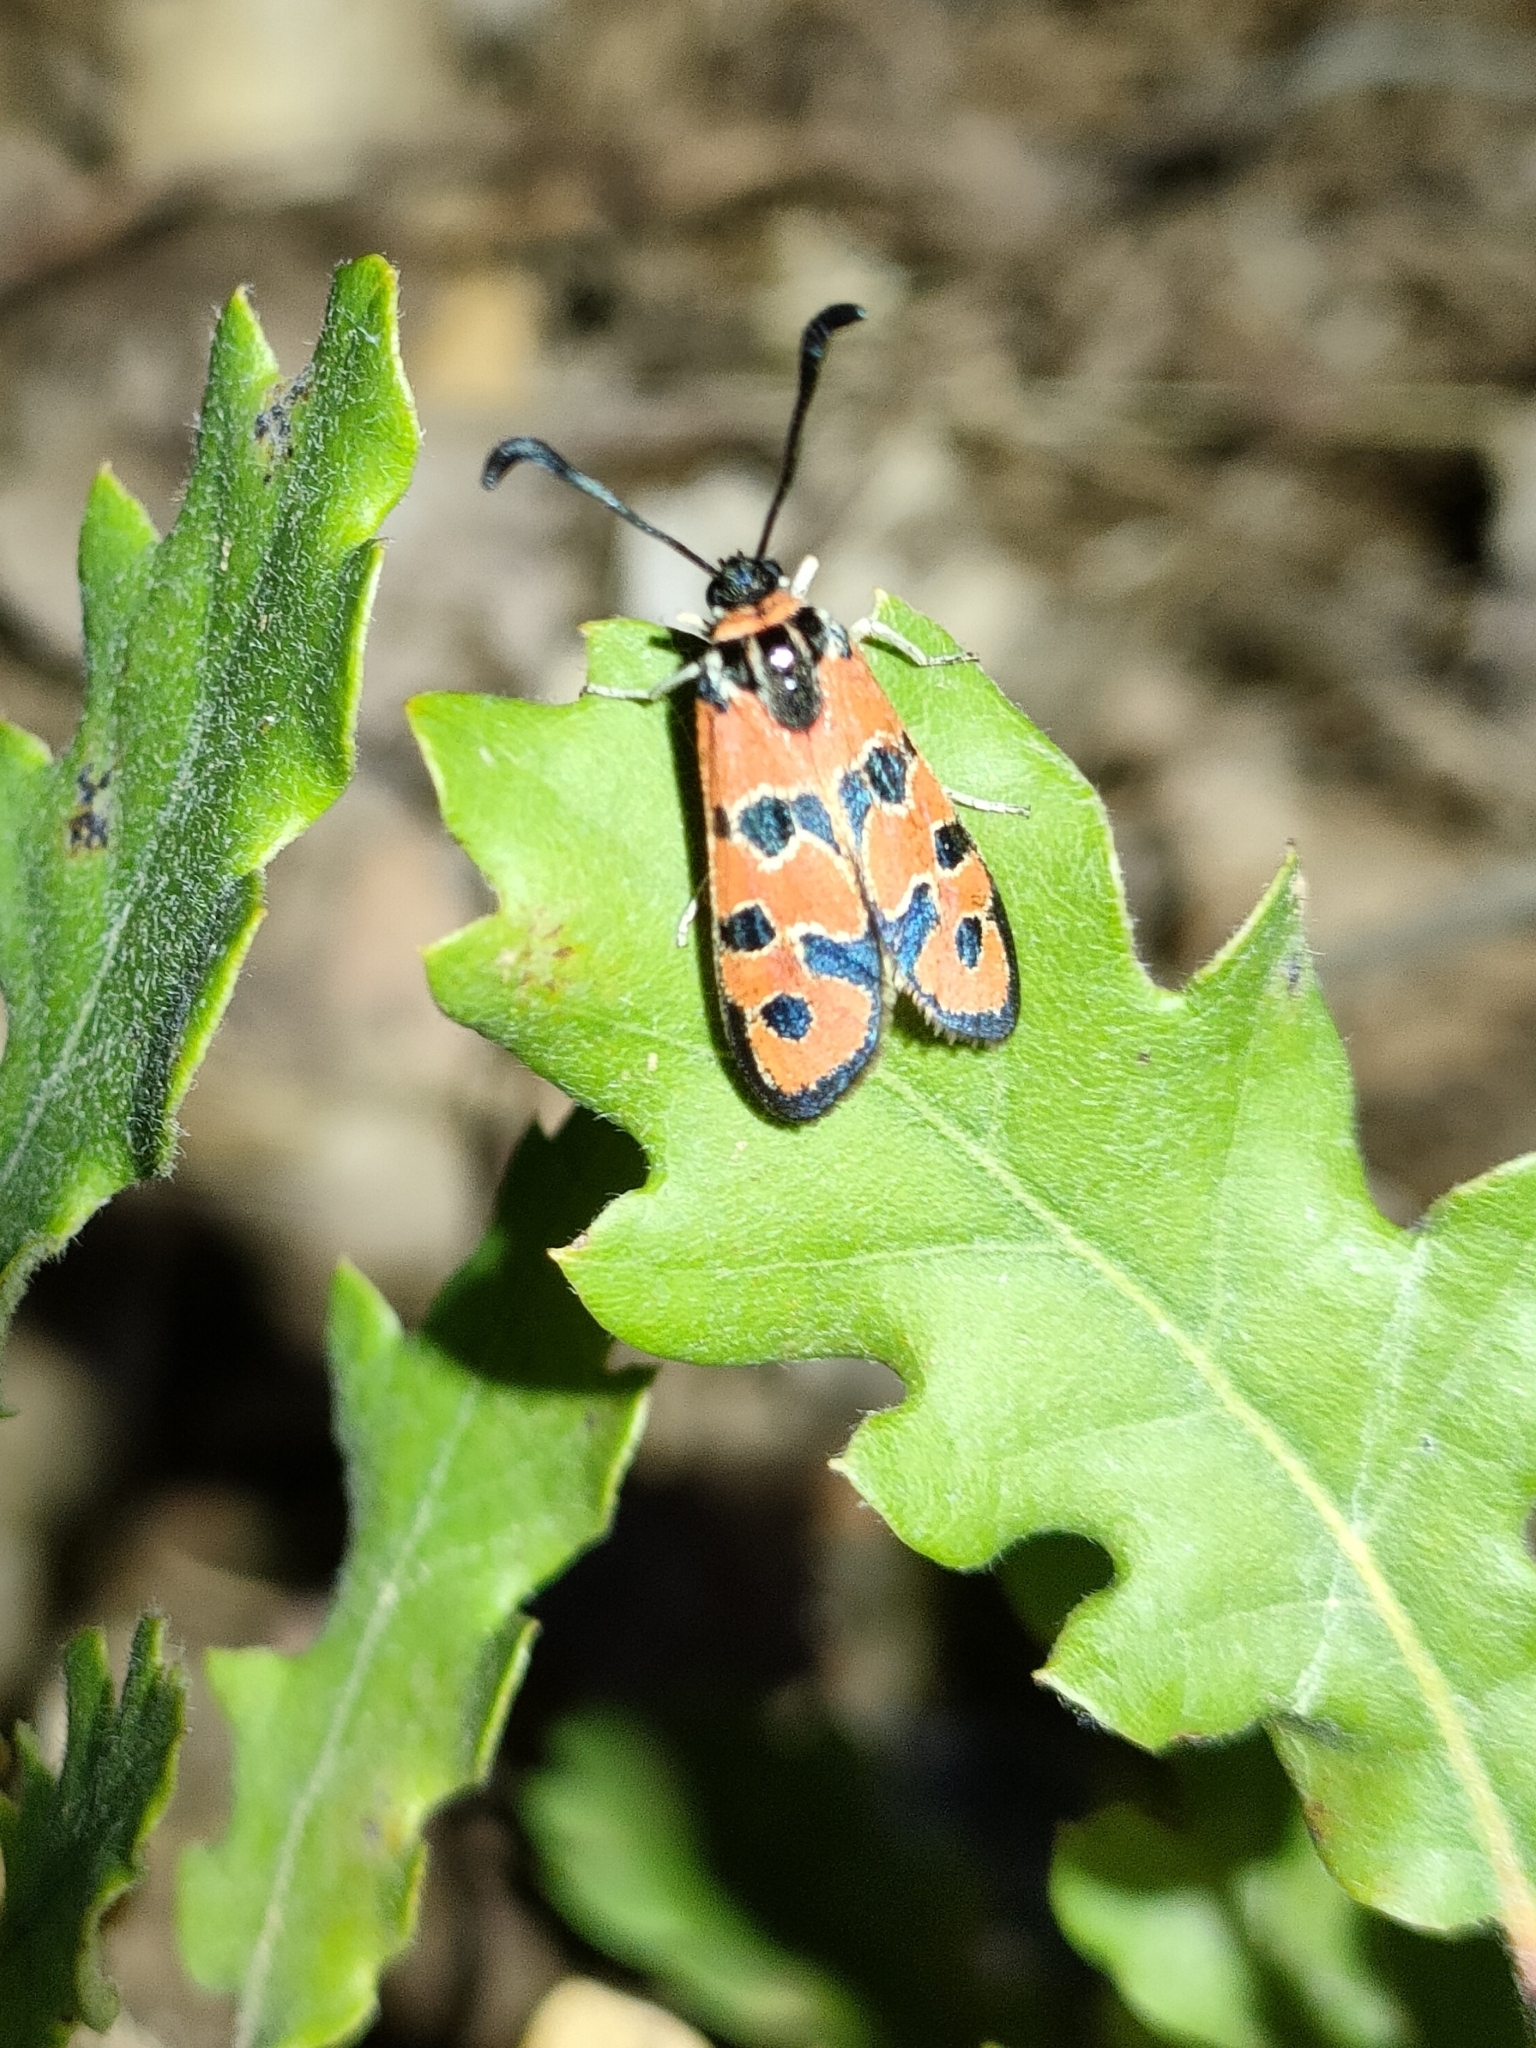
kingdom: Animalia
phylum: Arthropoda
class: Insecta
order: Lepidoptera
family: Zygaenidae
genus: Zygaena
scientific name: Zygaena fausta
